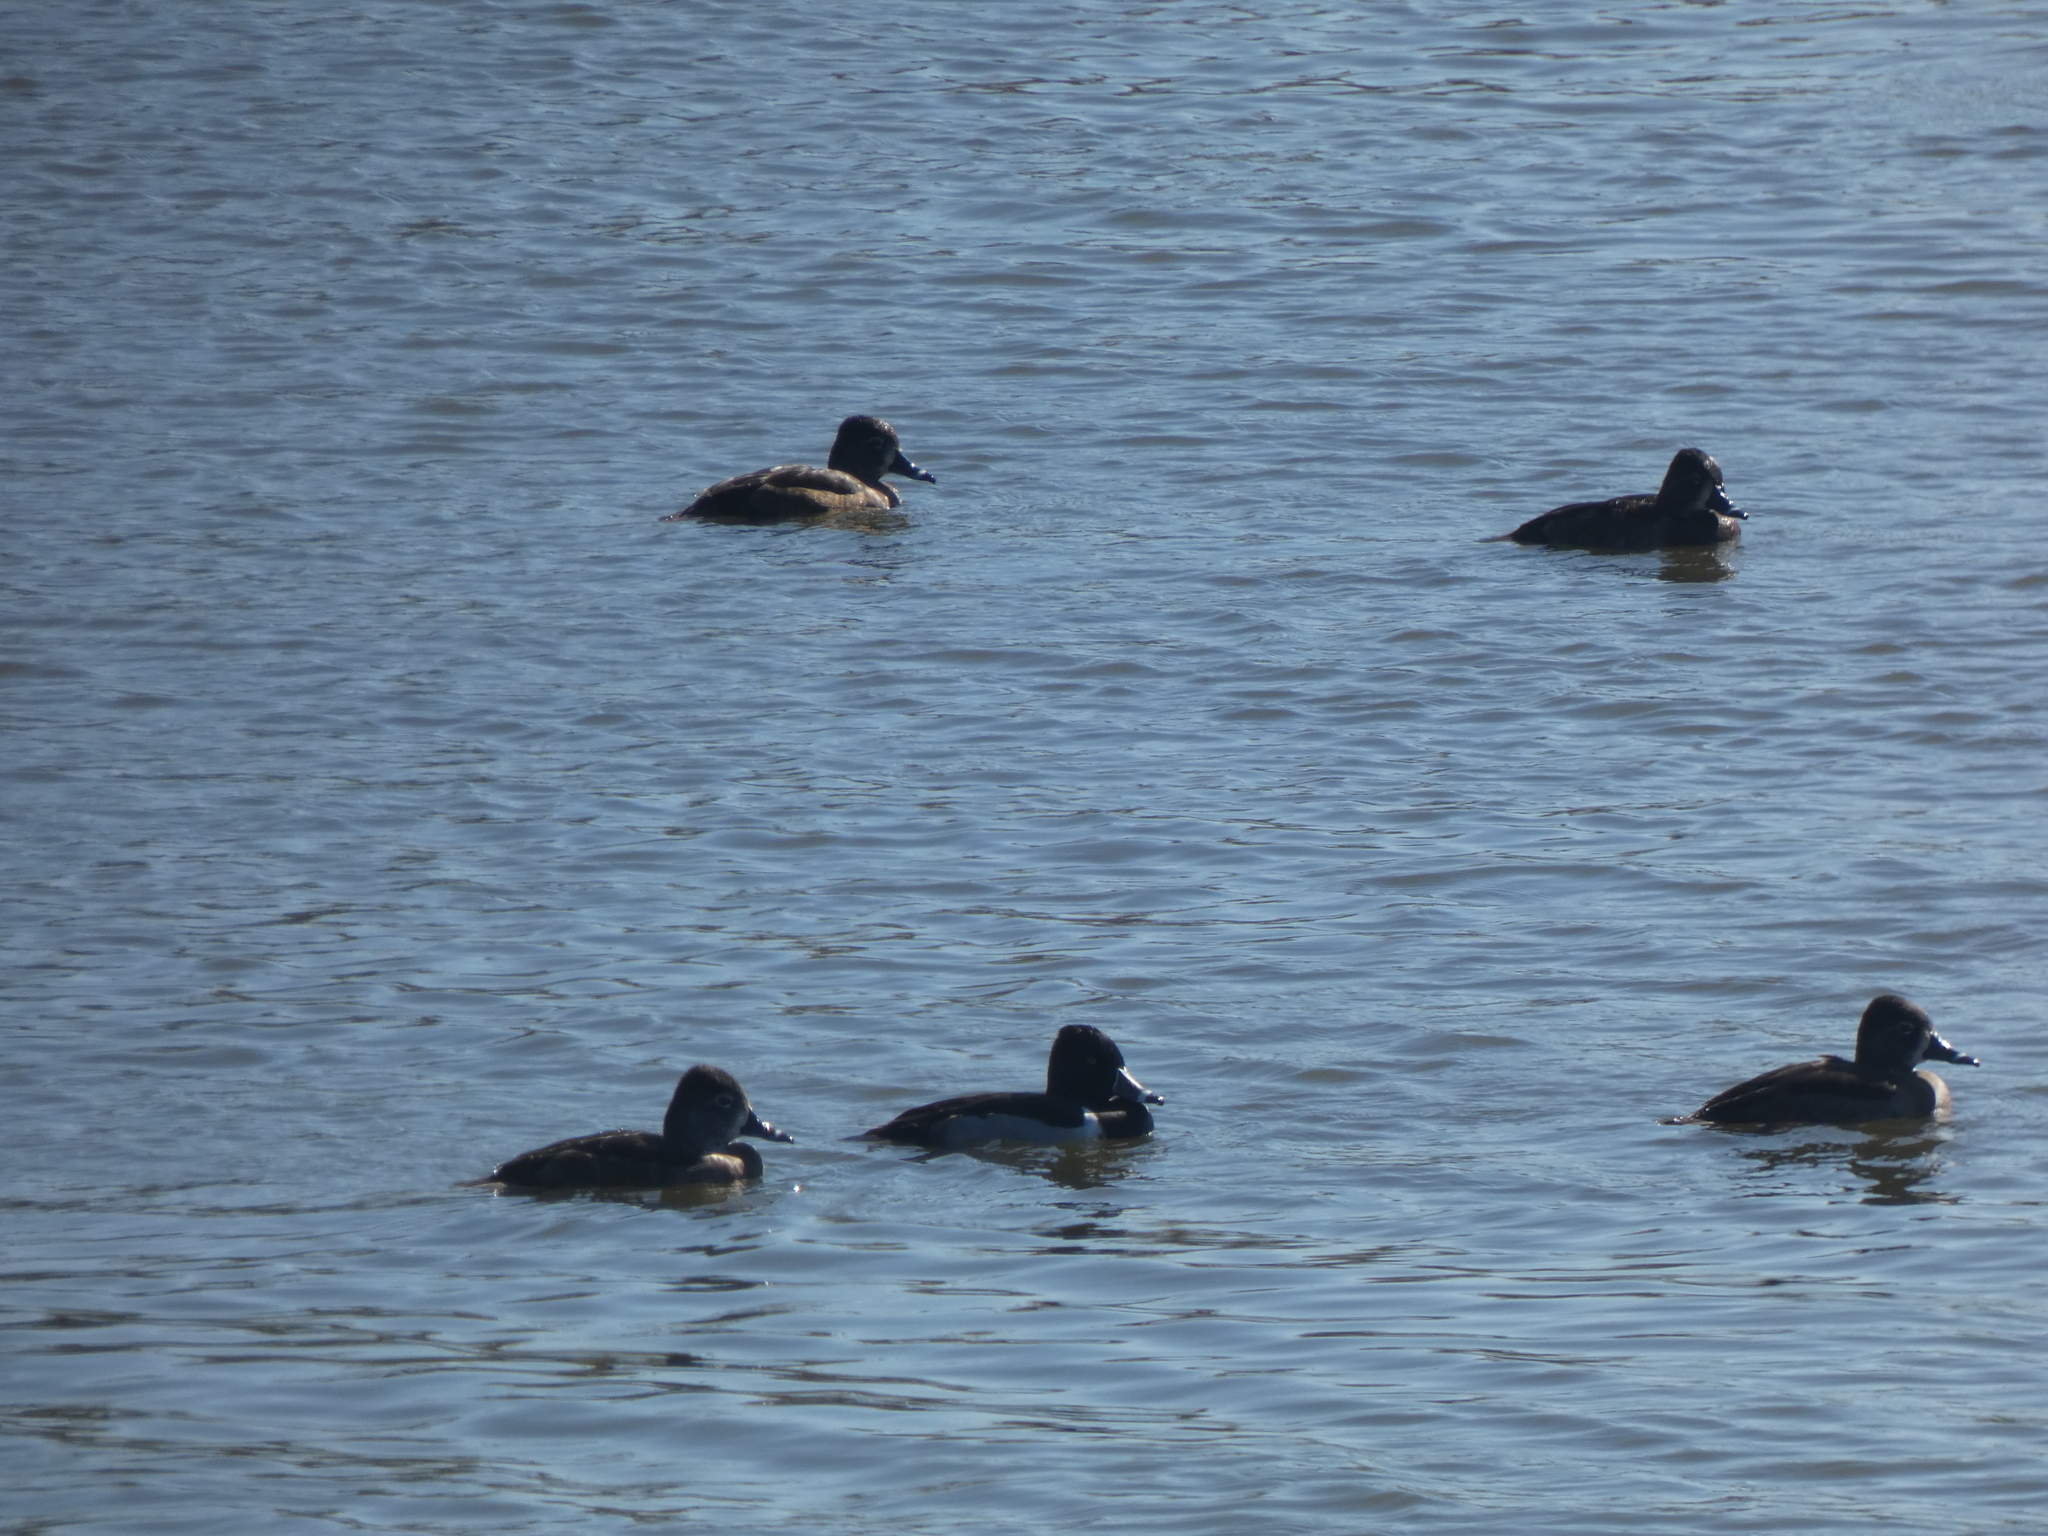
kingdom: Animalia
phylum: Chordata
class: Aves
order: Anseriformes
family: Anatidae
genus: Aythya
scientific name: Aythya collaris
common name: Ring-necked duck
